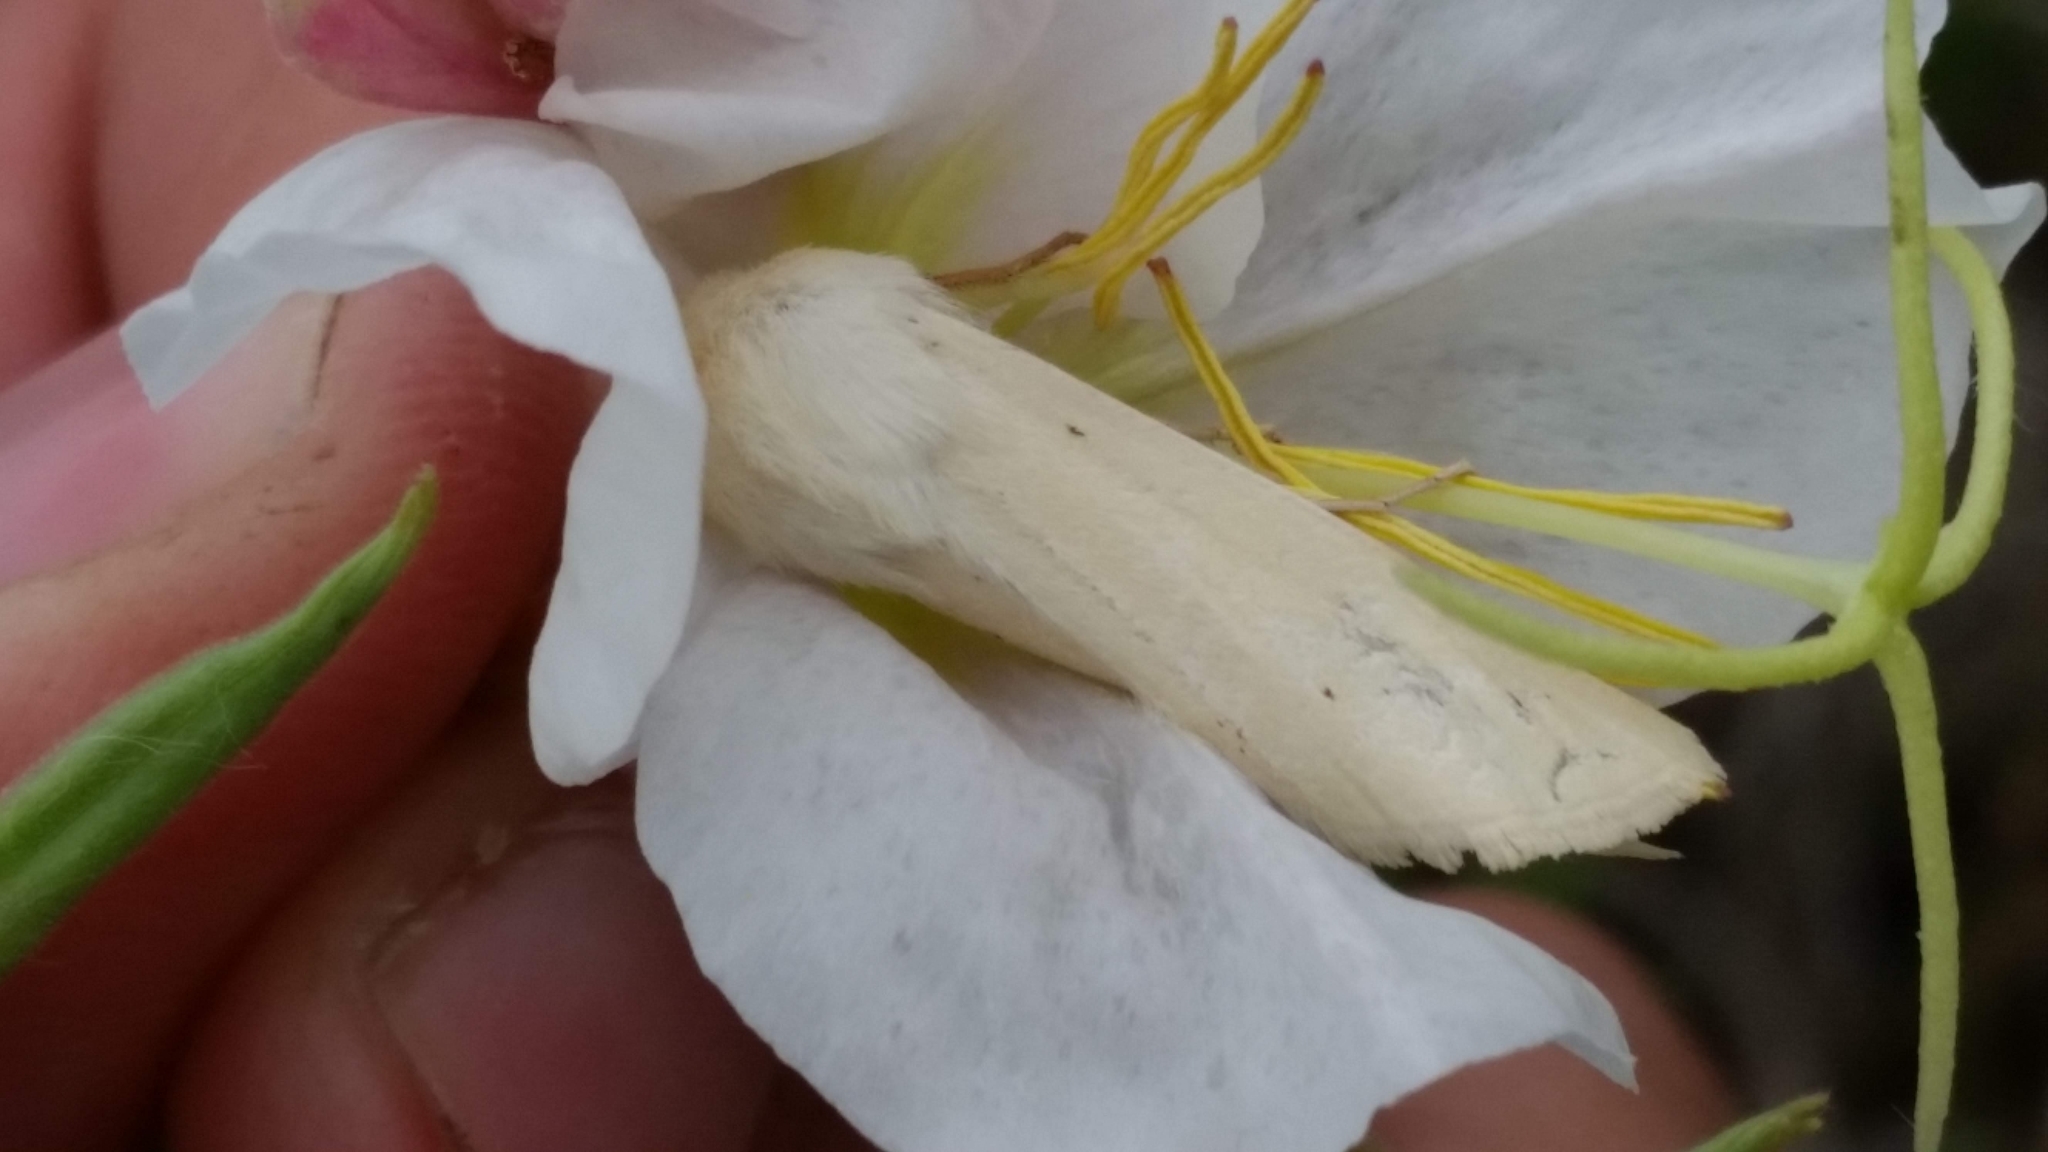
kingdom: Animalia
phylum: Arthropoda
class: Insecta
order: Lepidoptera
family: Noctuidae
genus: Copablepharon
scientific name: Copablepharon grandis
